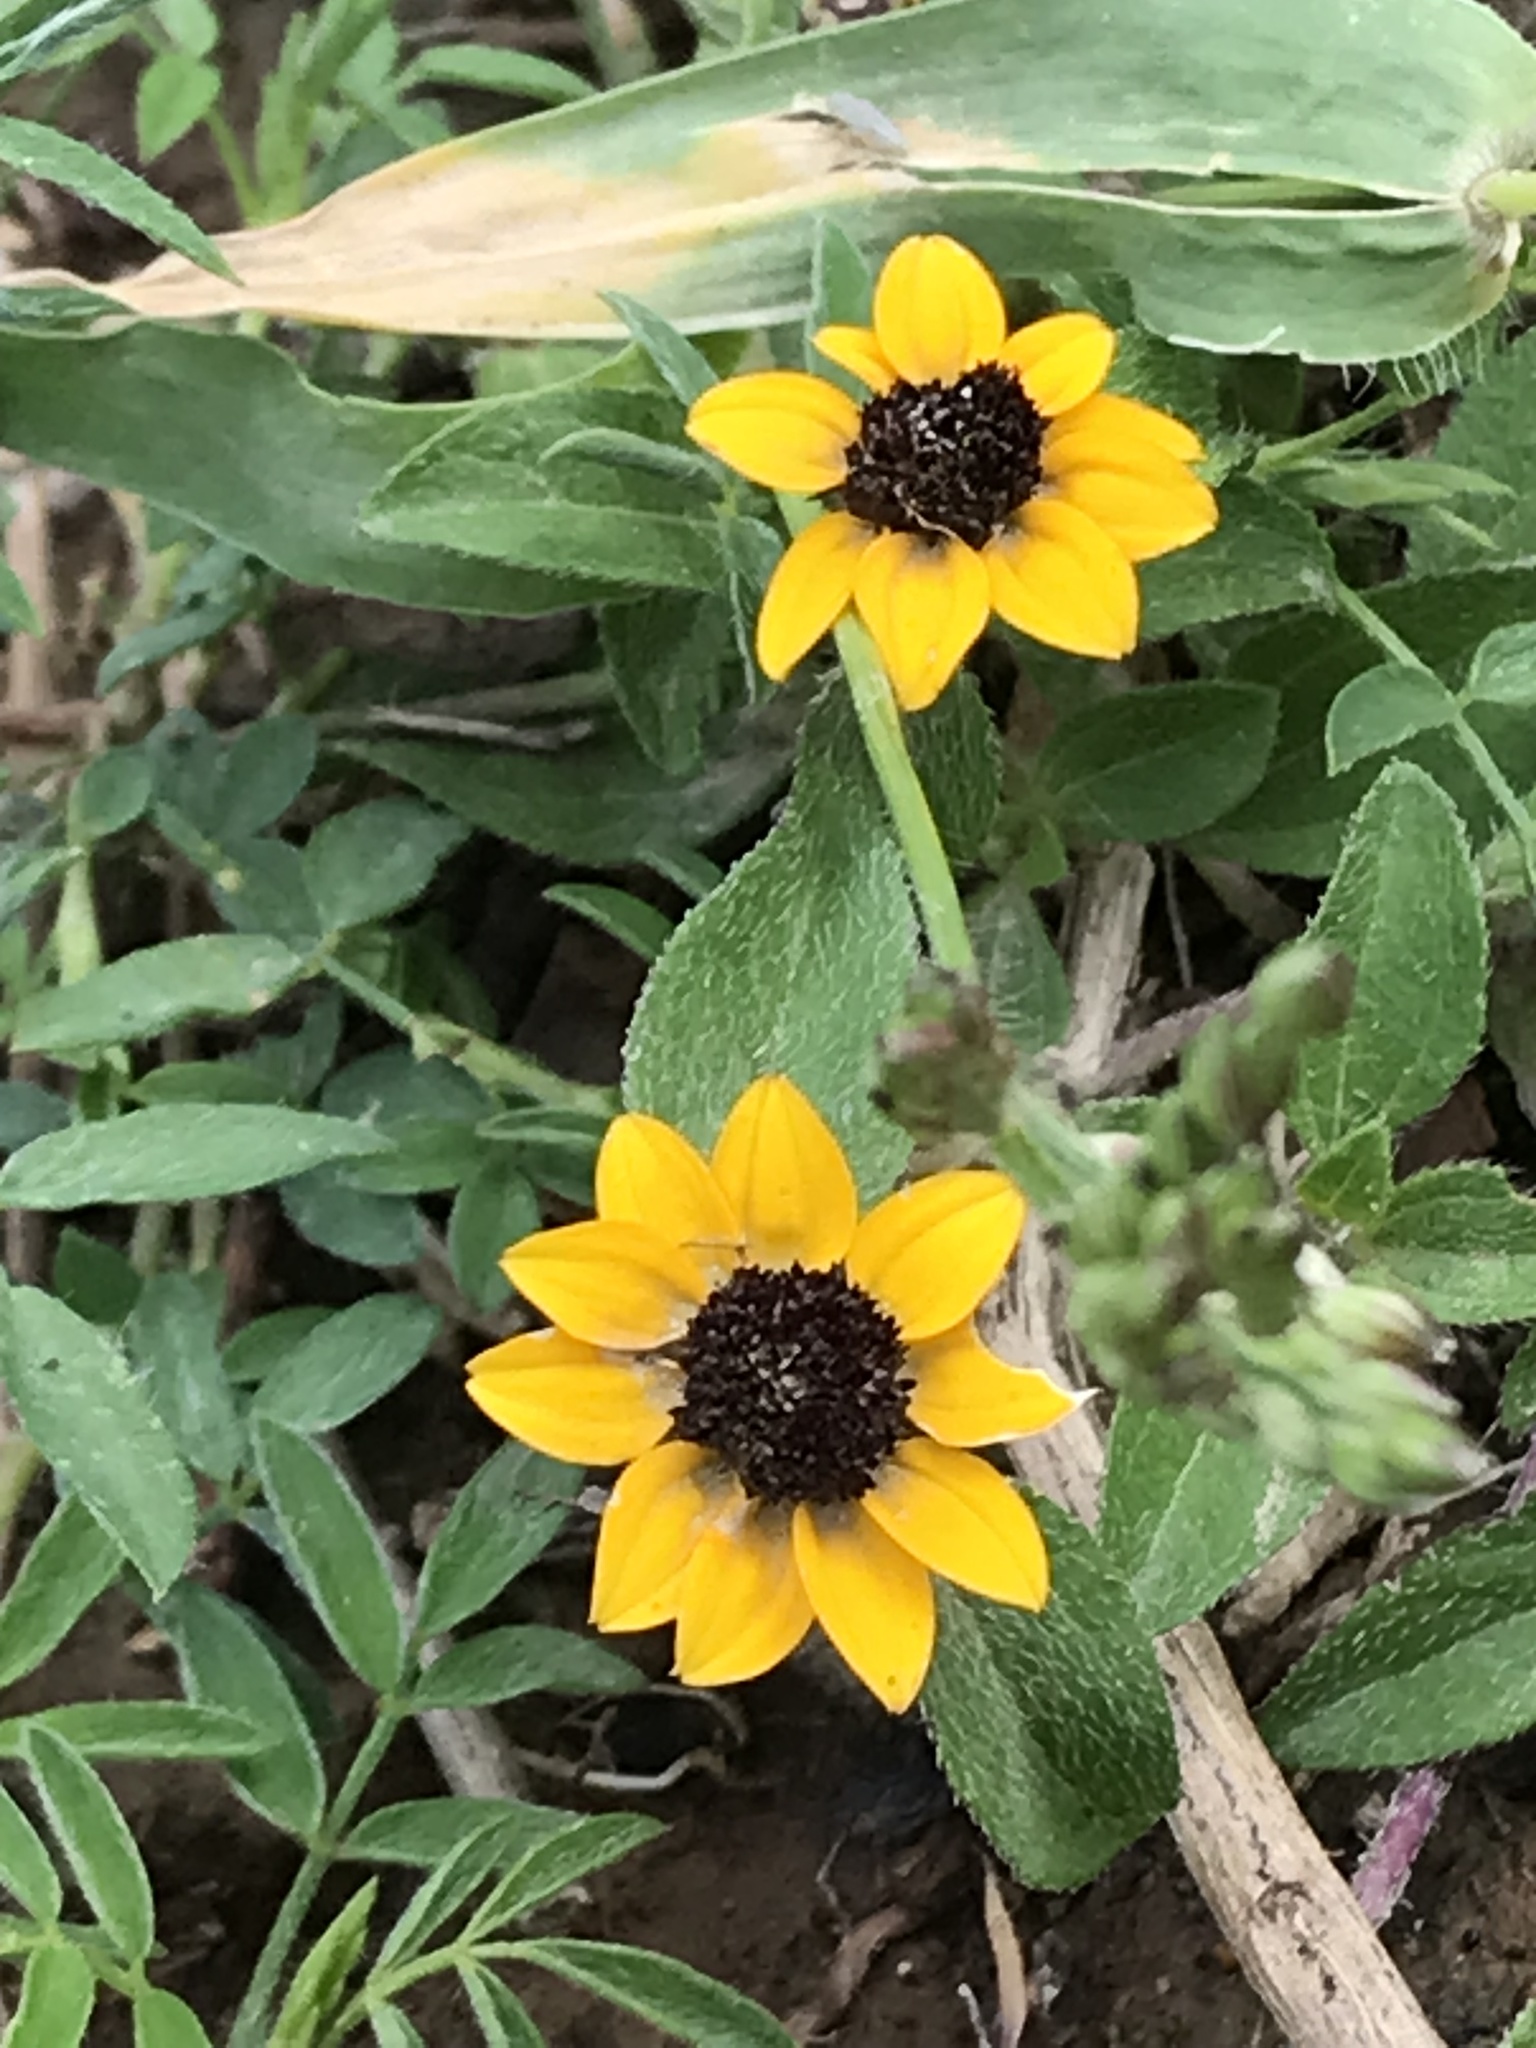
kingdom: Plantae
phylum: Tracheophyta
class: Magnoliopsida
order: Asterales
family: Asteraceae
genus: Sanvitalia
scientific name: Sanvitalia procumbens
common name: Mexican creeping zinnia
